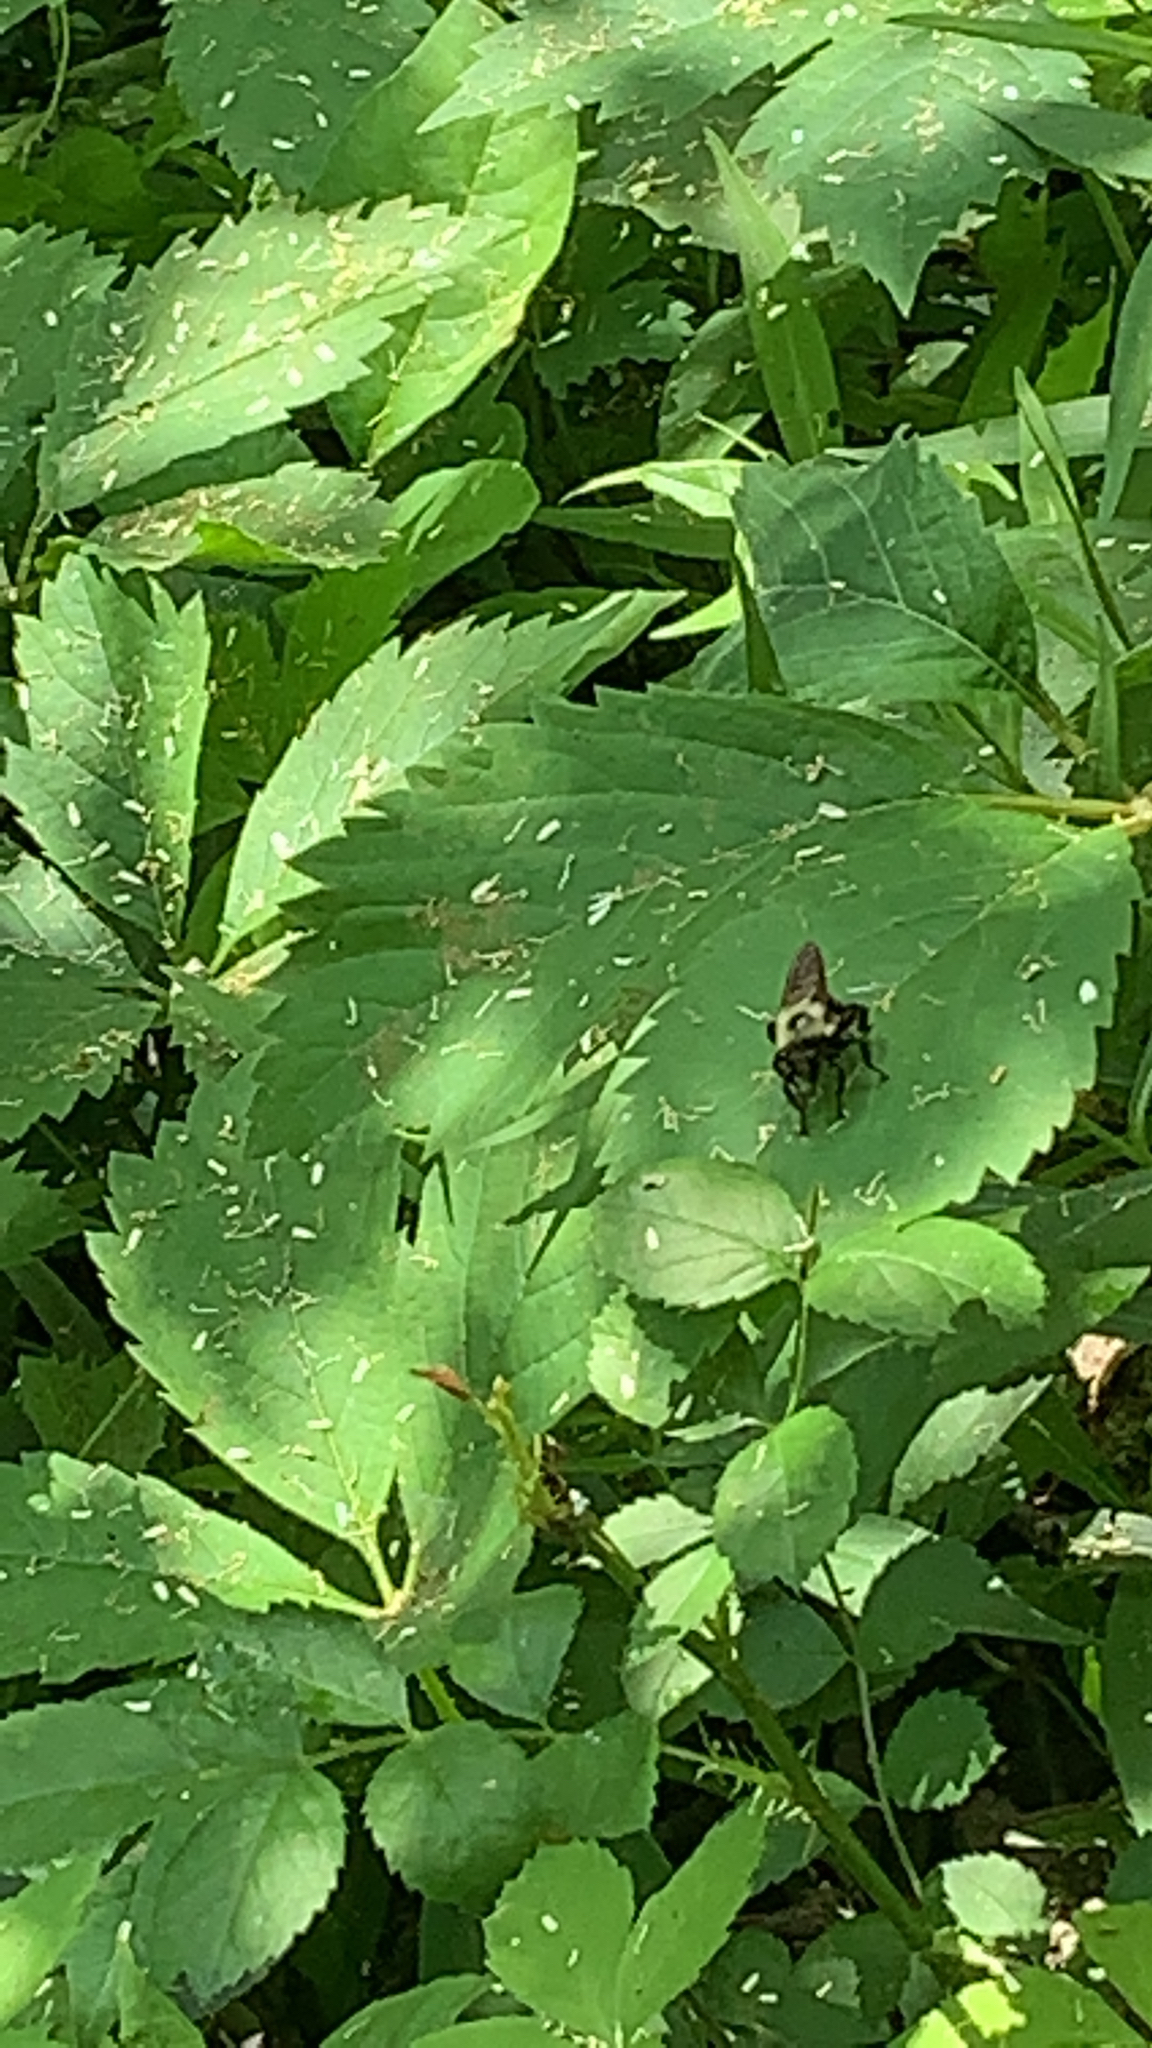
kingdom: Animalia
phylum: Arthropoda
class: Insecta
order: Diptera
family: Asilidae
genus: Laphria
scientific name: Laphria thoracica
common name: Bumble bee mimic robber fly
